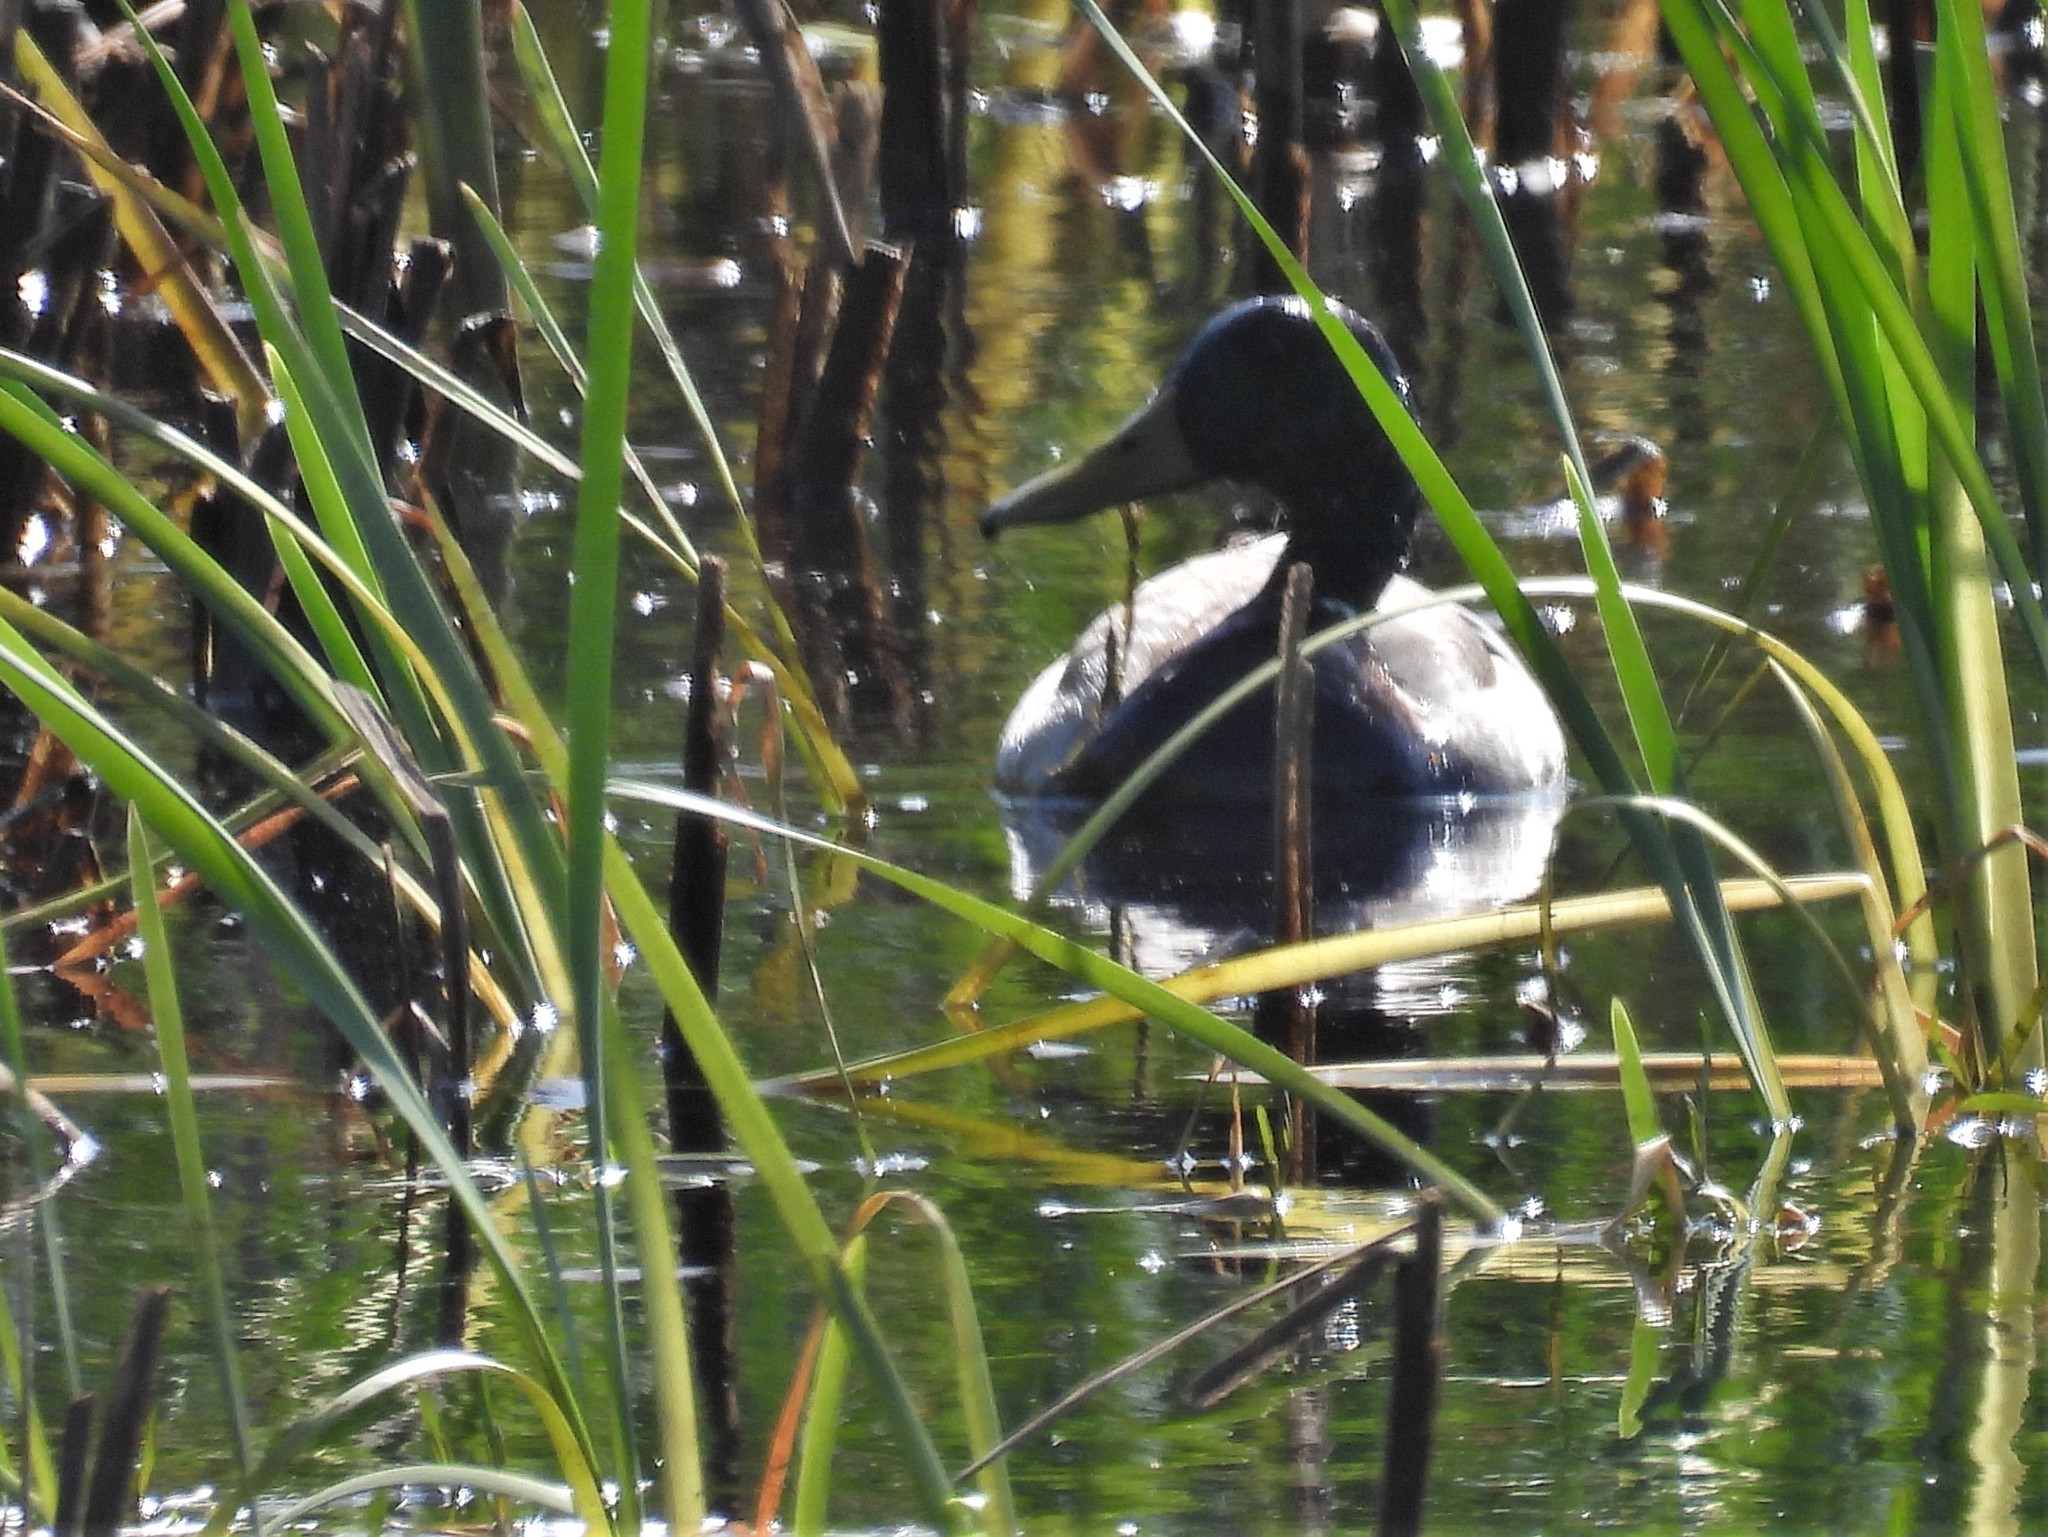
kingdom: Animalia
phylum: Chordata
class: Aves
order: Anseriformes
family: Anatidae
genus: Anas
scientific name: Anas platyrhynchos
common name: Mallard
